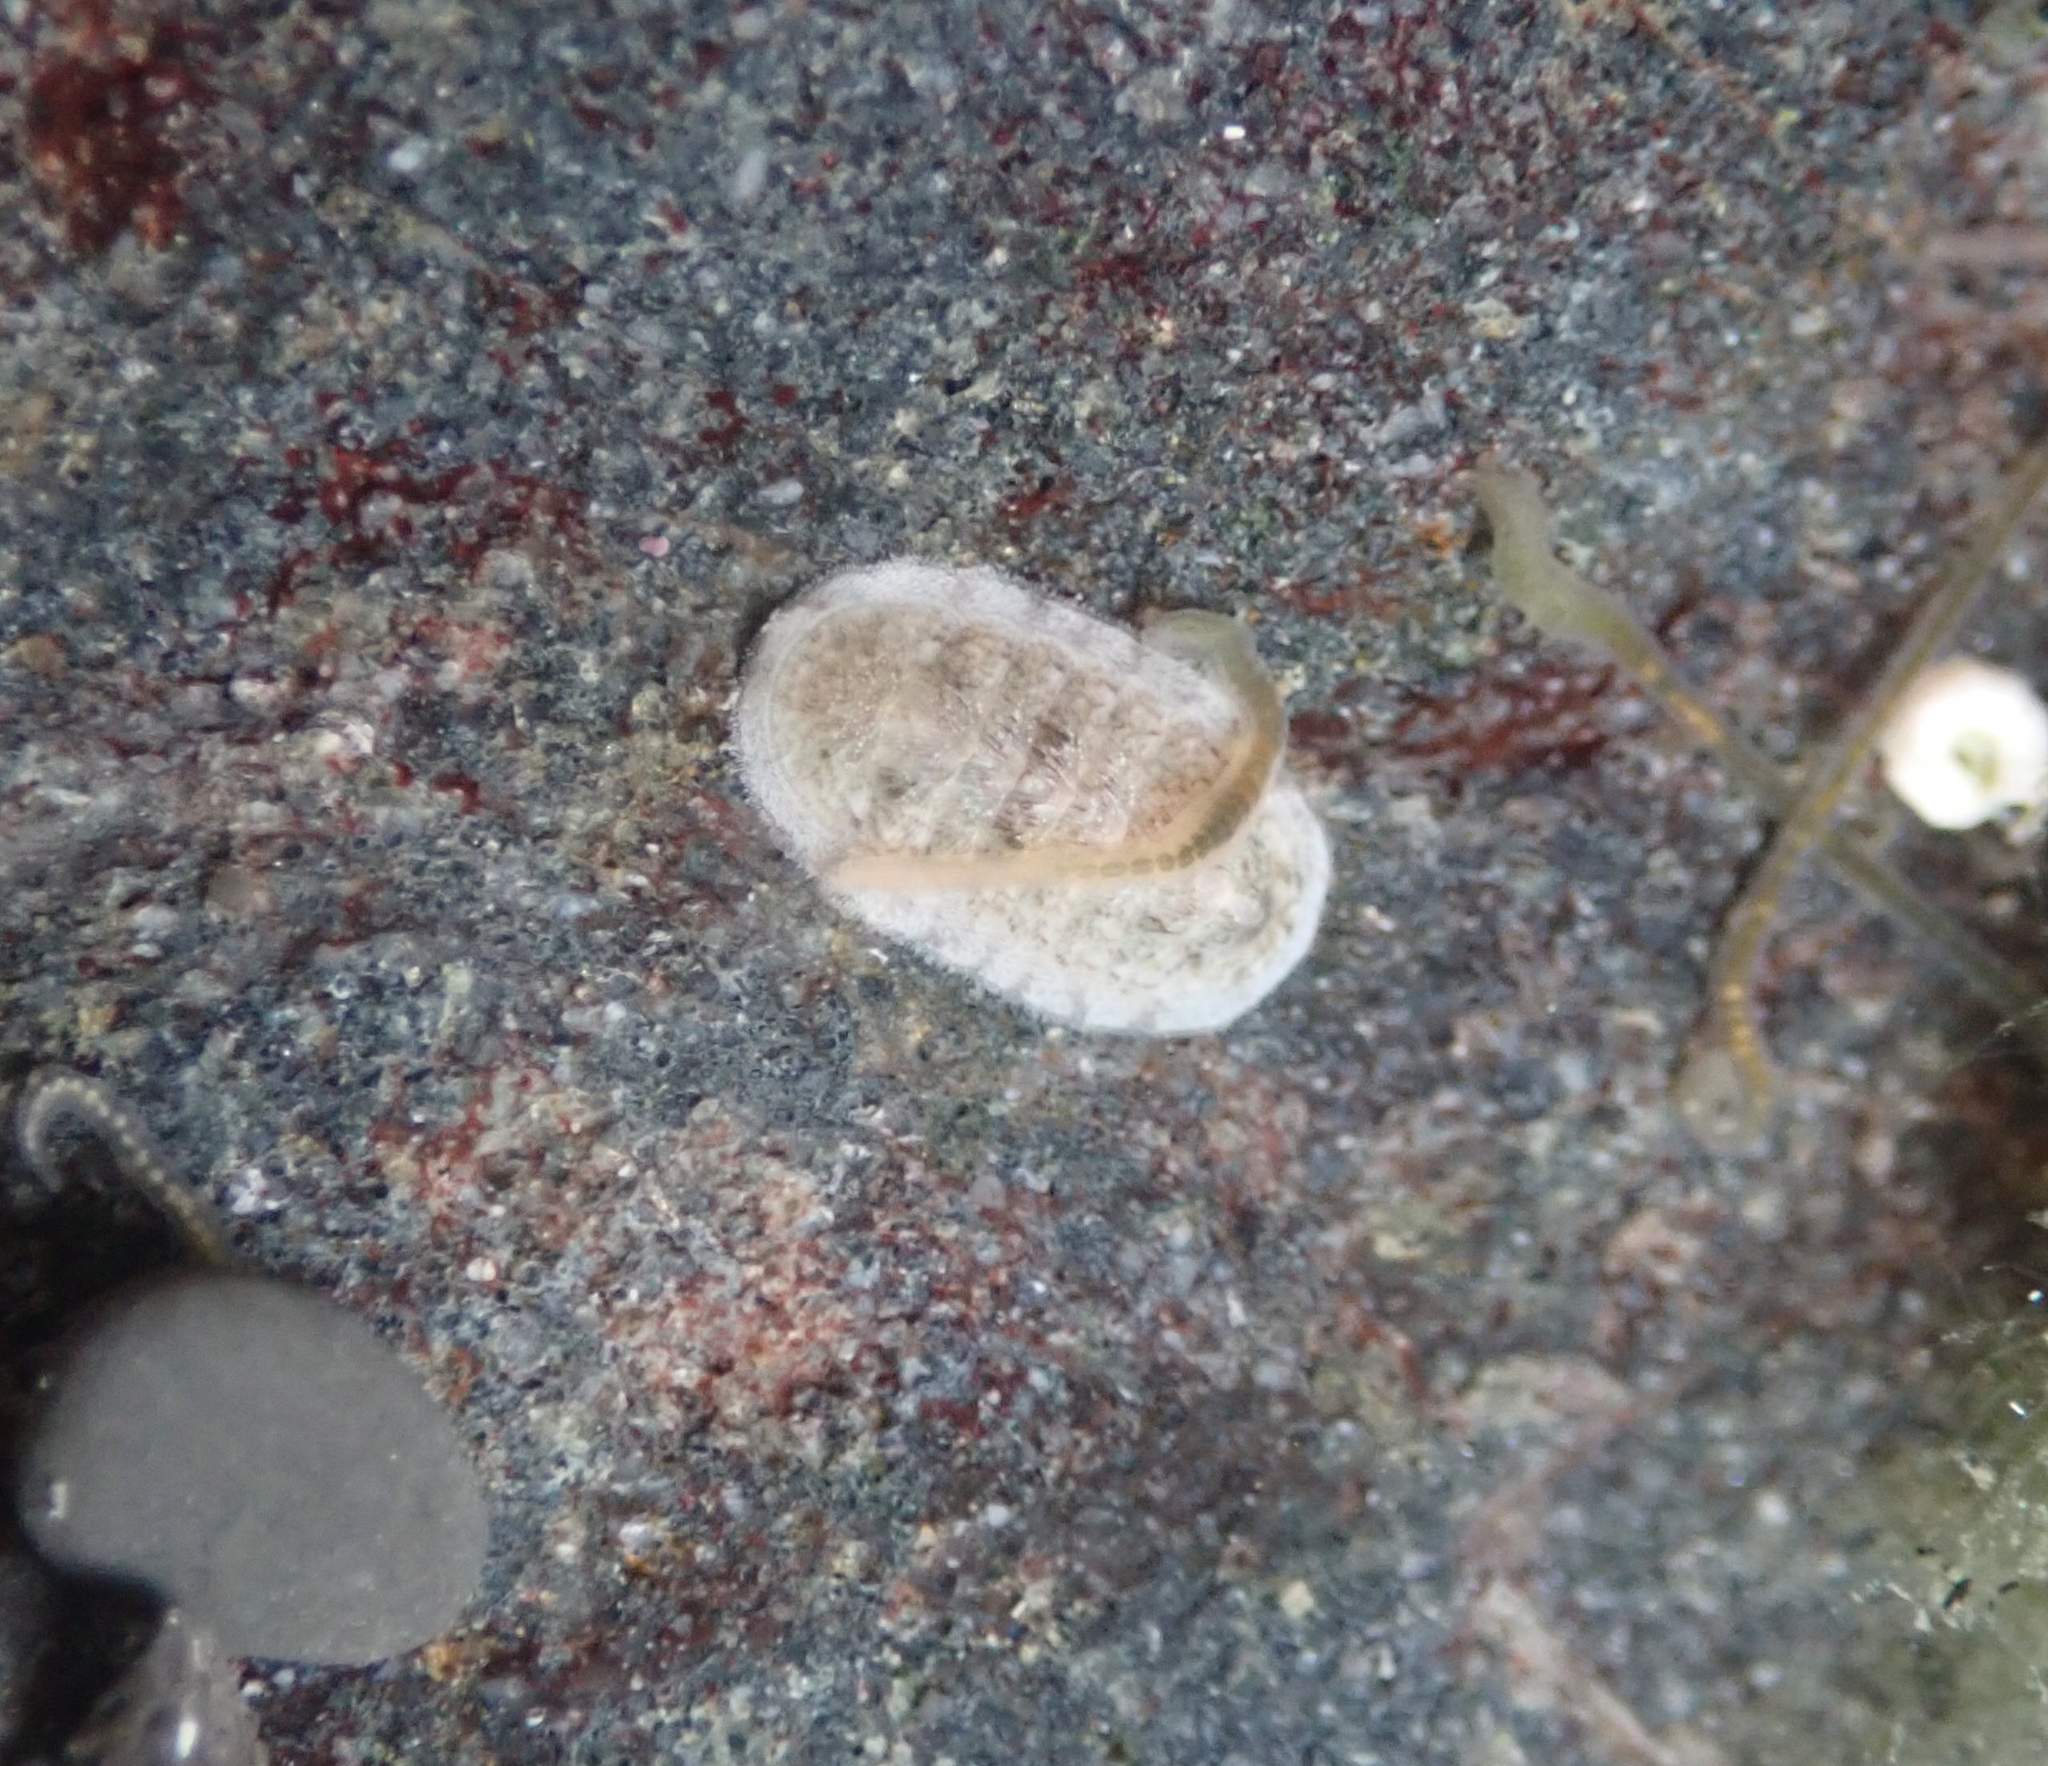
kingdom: Animalia
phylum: Mollusca
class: Polyplacophora
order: Chitonida
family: Ischnochitonidae
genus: Ischnochiton
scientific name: Ischnochiton maorianus
